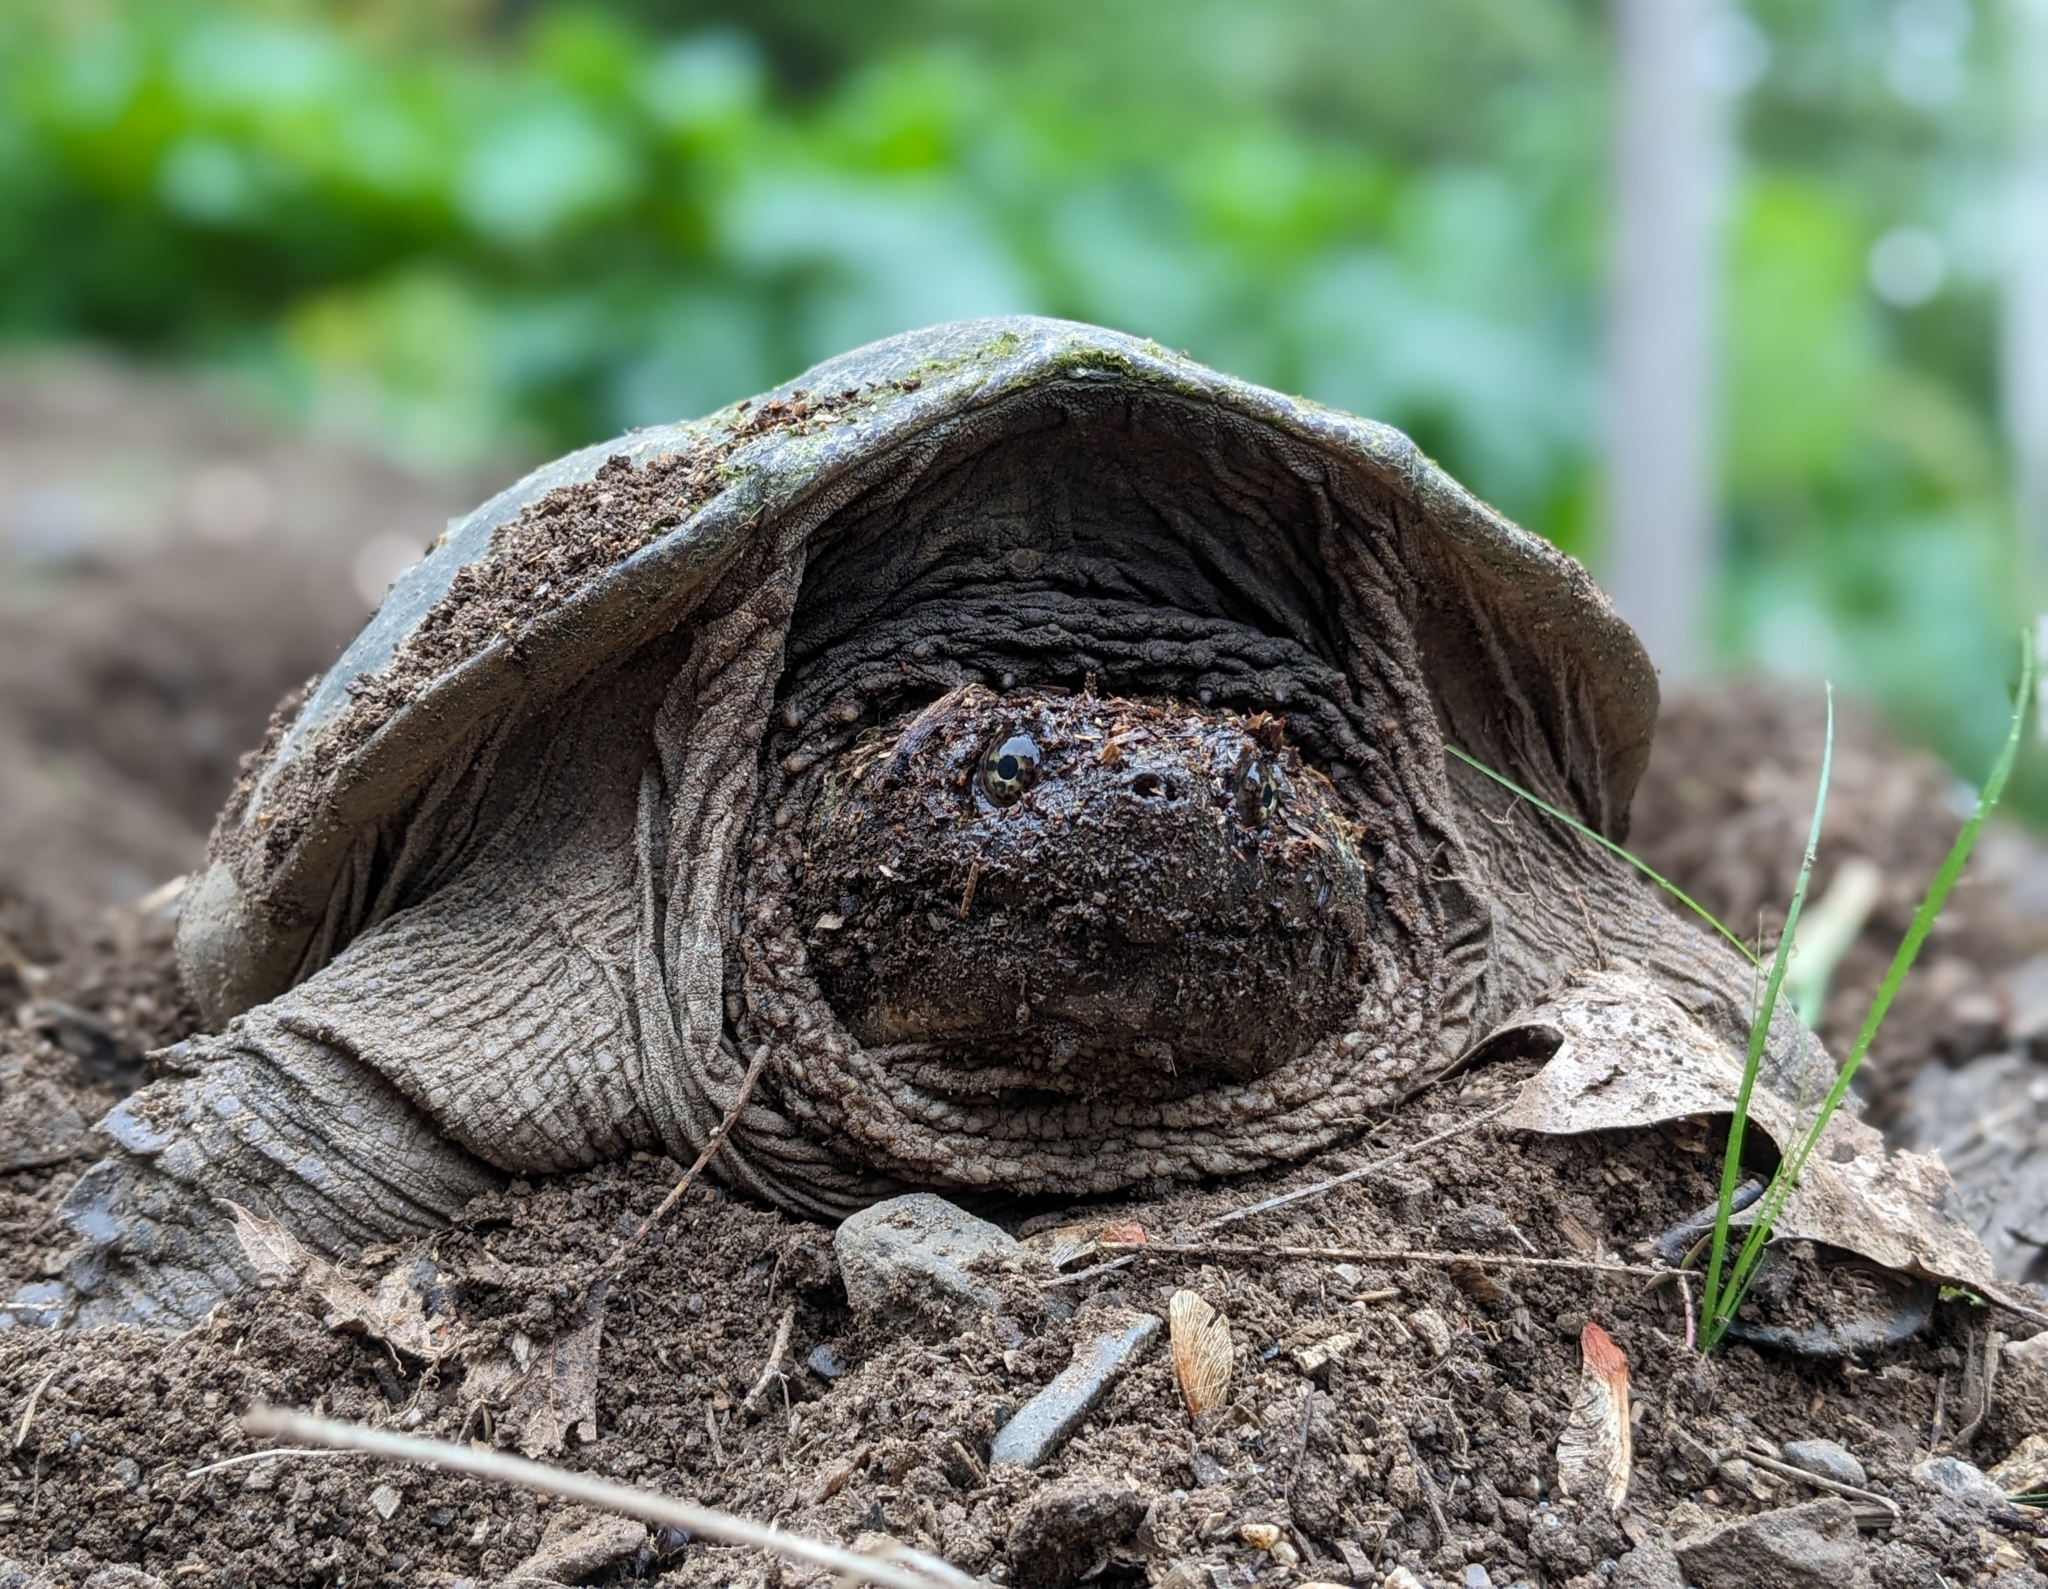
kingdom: Animalia
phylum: Chordata
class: Testudines
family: Chelydridae
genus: Chelydra
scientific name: Chelydra serpentina
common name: Common snapping turtle
